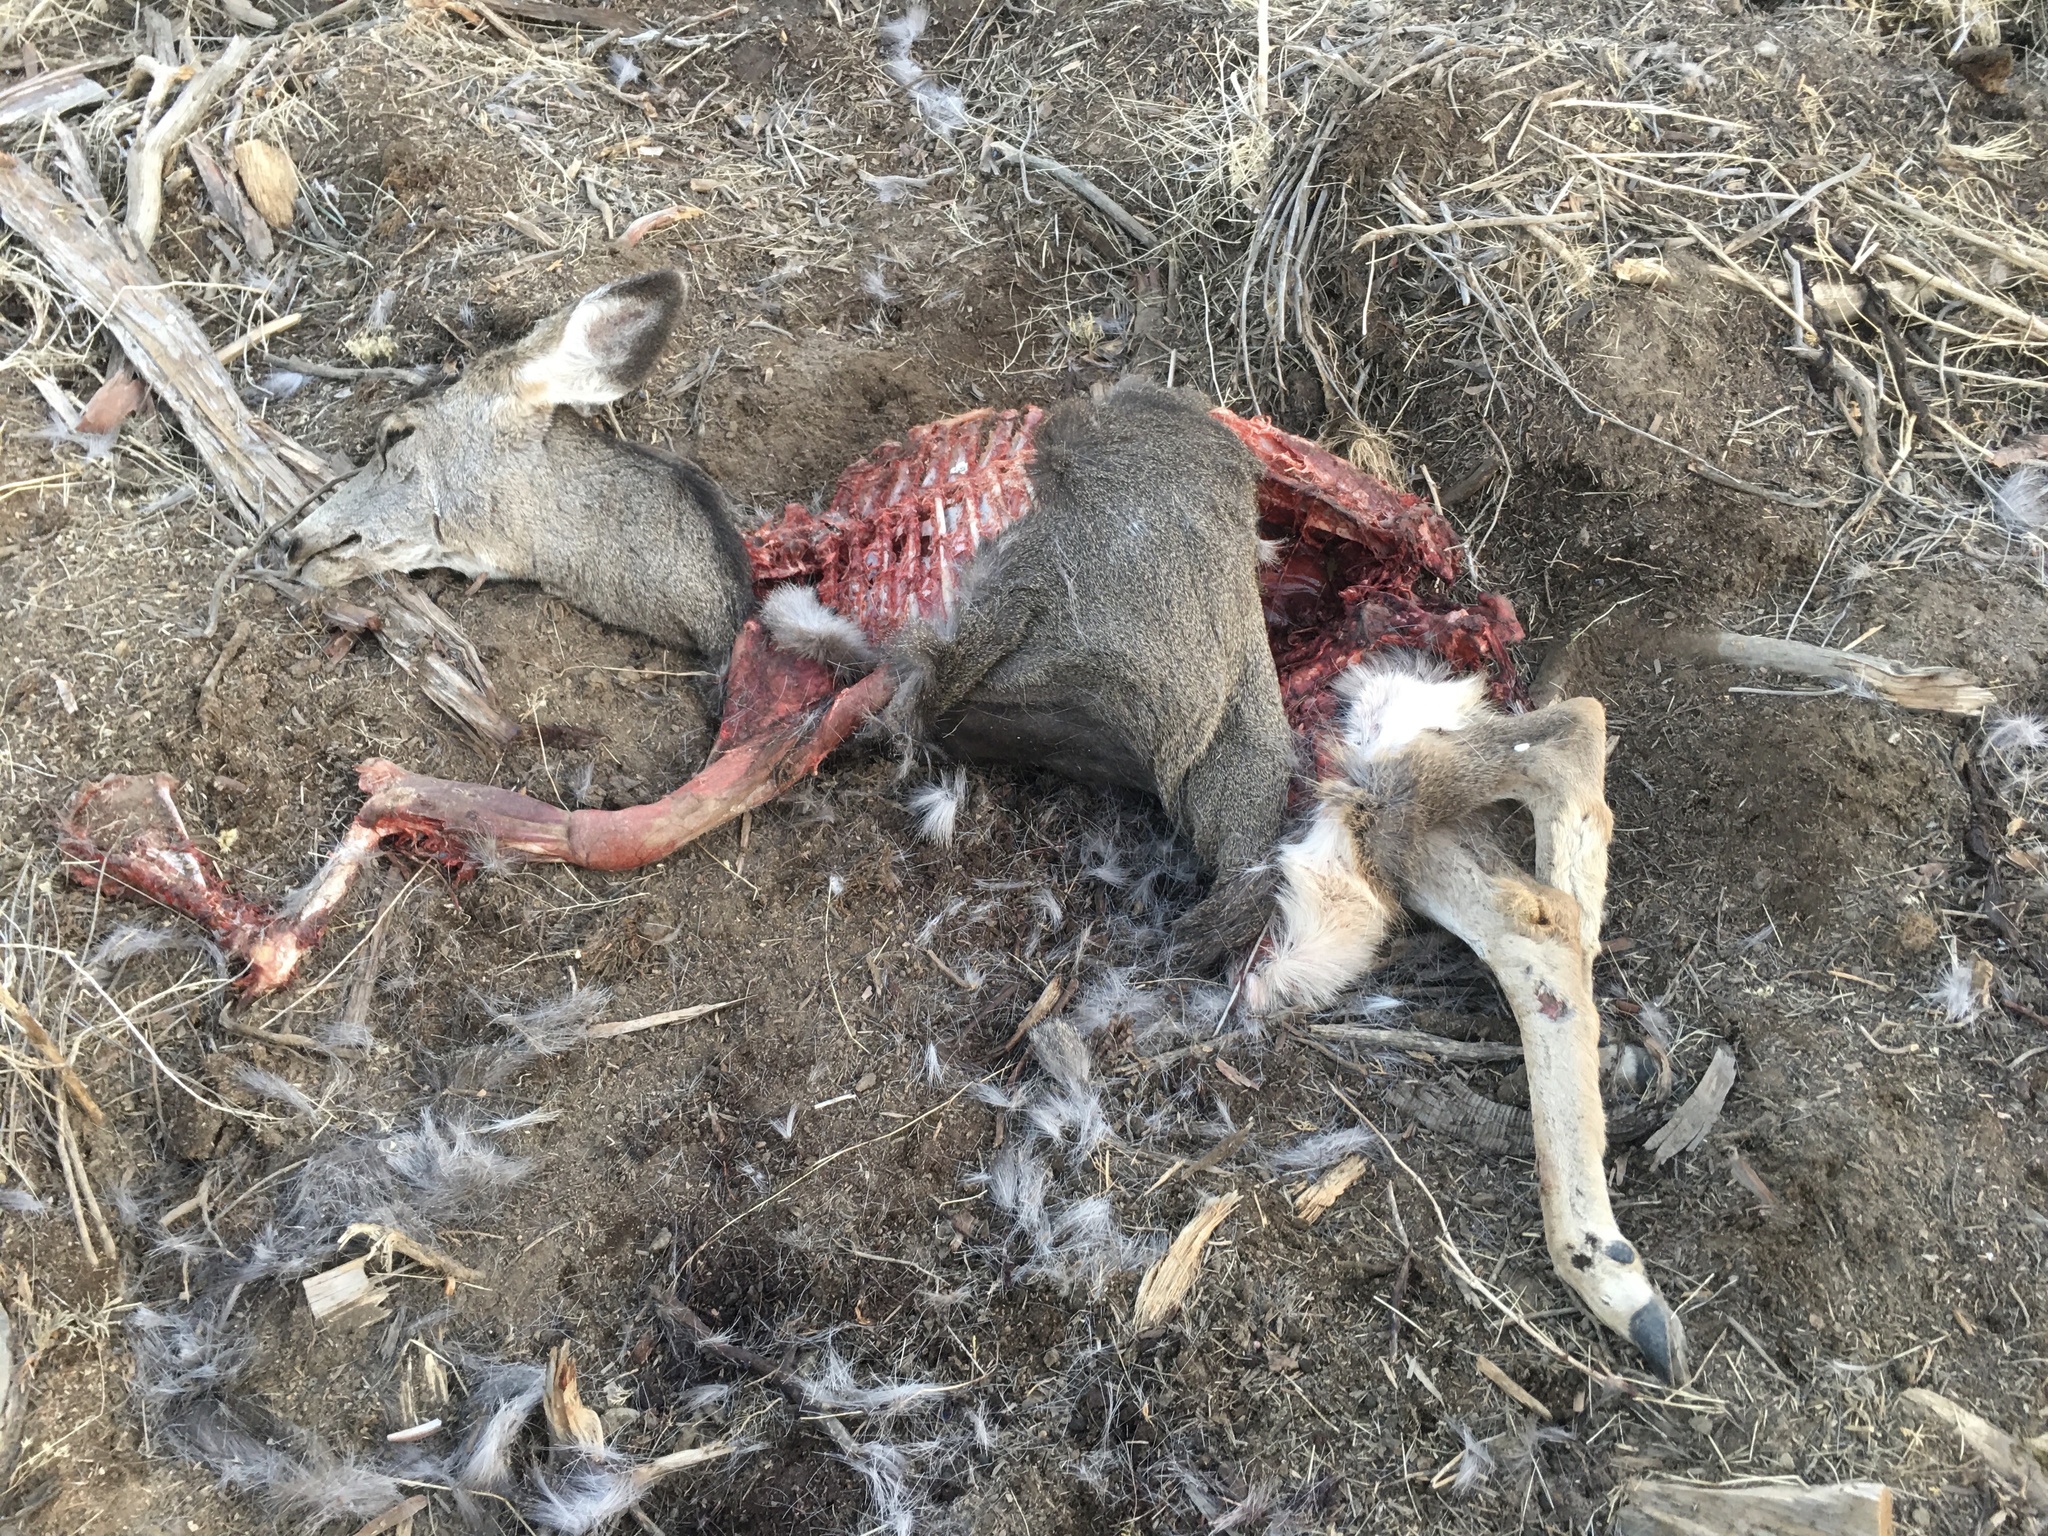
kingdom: Animalia
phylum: Chordata
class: Mammalia
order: Artiodactyla
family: Cervidae
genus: Odocoileus
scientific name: Odocoileus hemionus
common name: Mule deer
